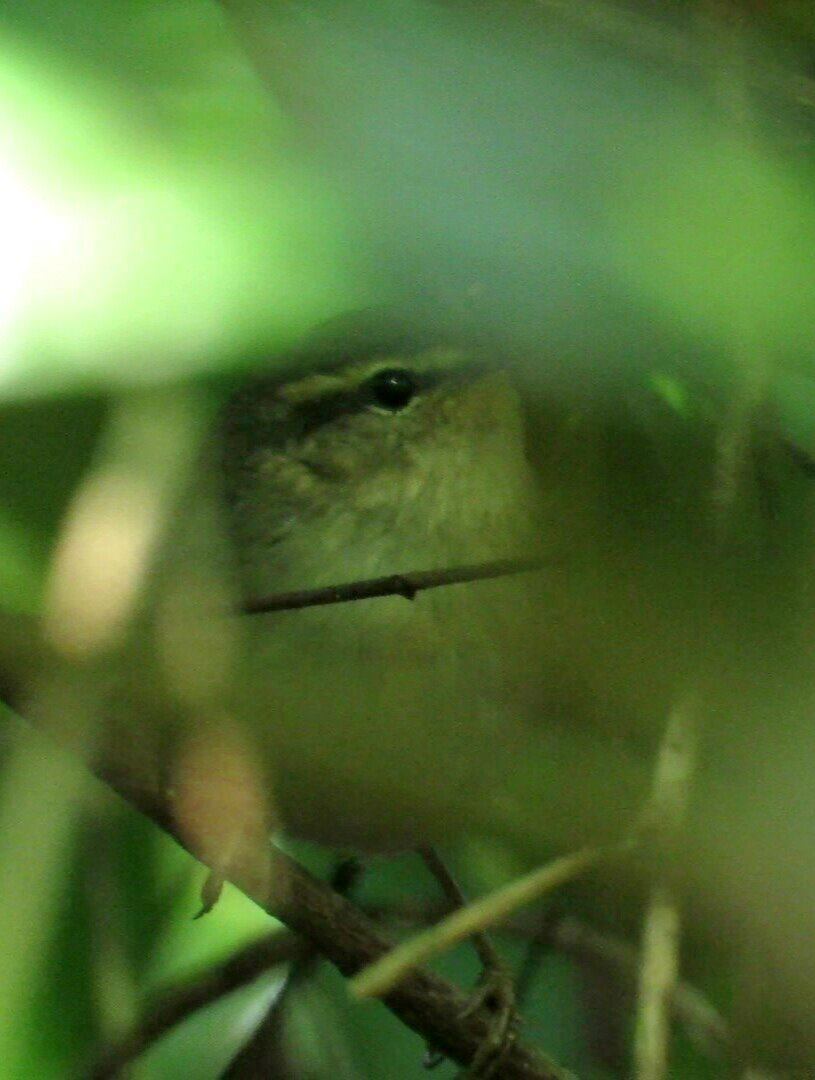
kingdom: Animalia
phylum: Chordata
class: Aves
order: Passeriformes
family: Phylloscopidae
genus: Phylloscopus
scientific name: Phylloscopus fuscatus
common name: Dusky warbler
